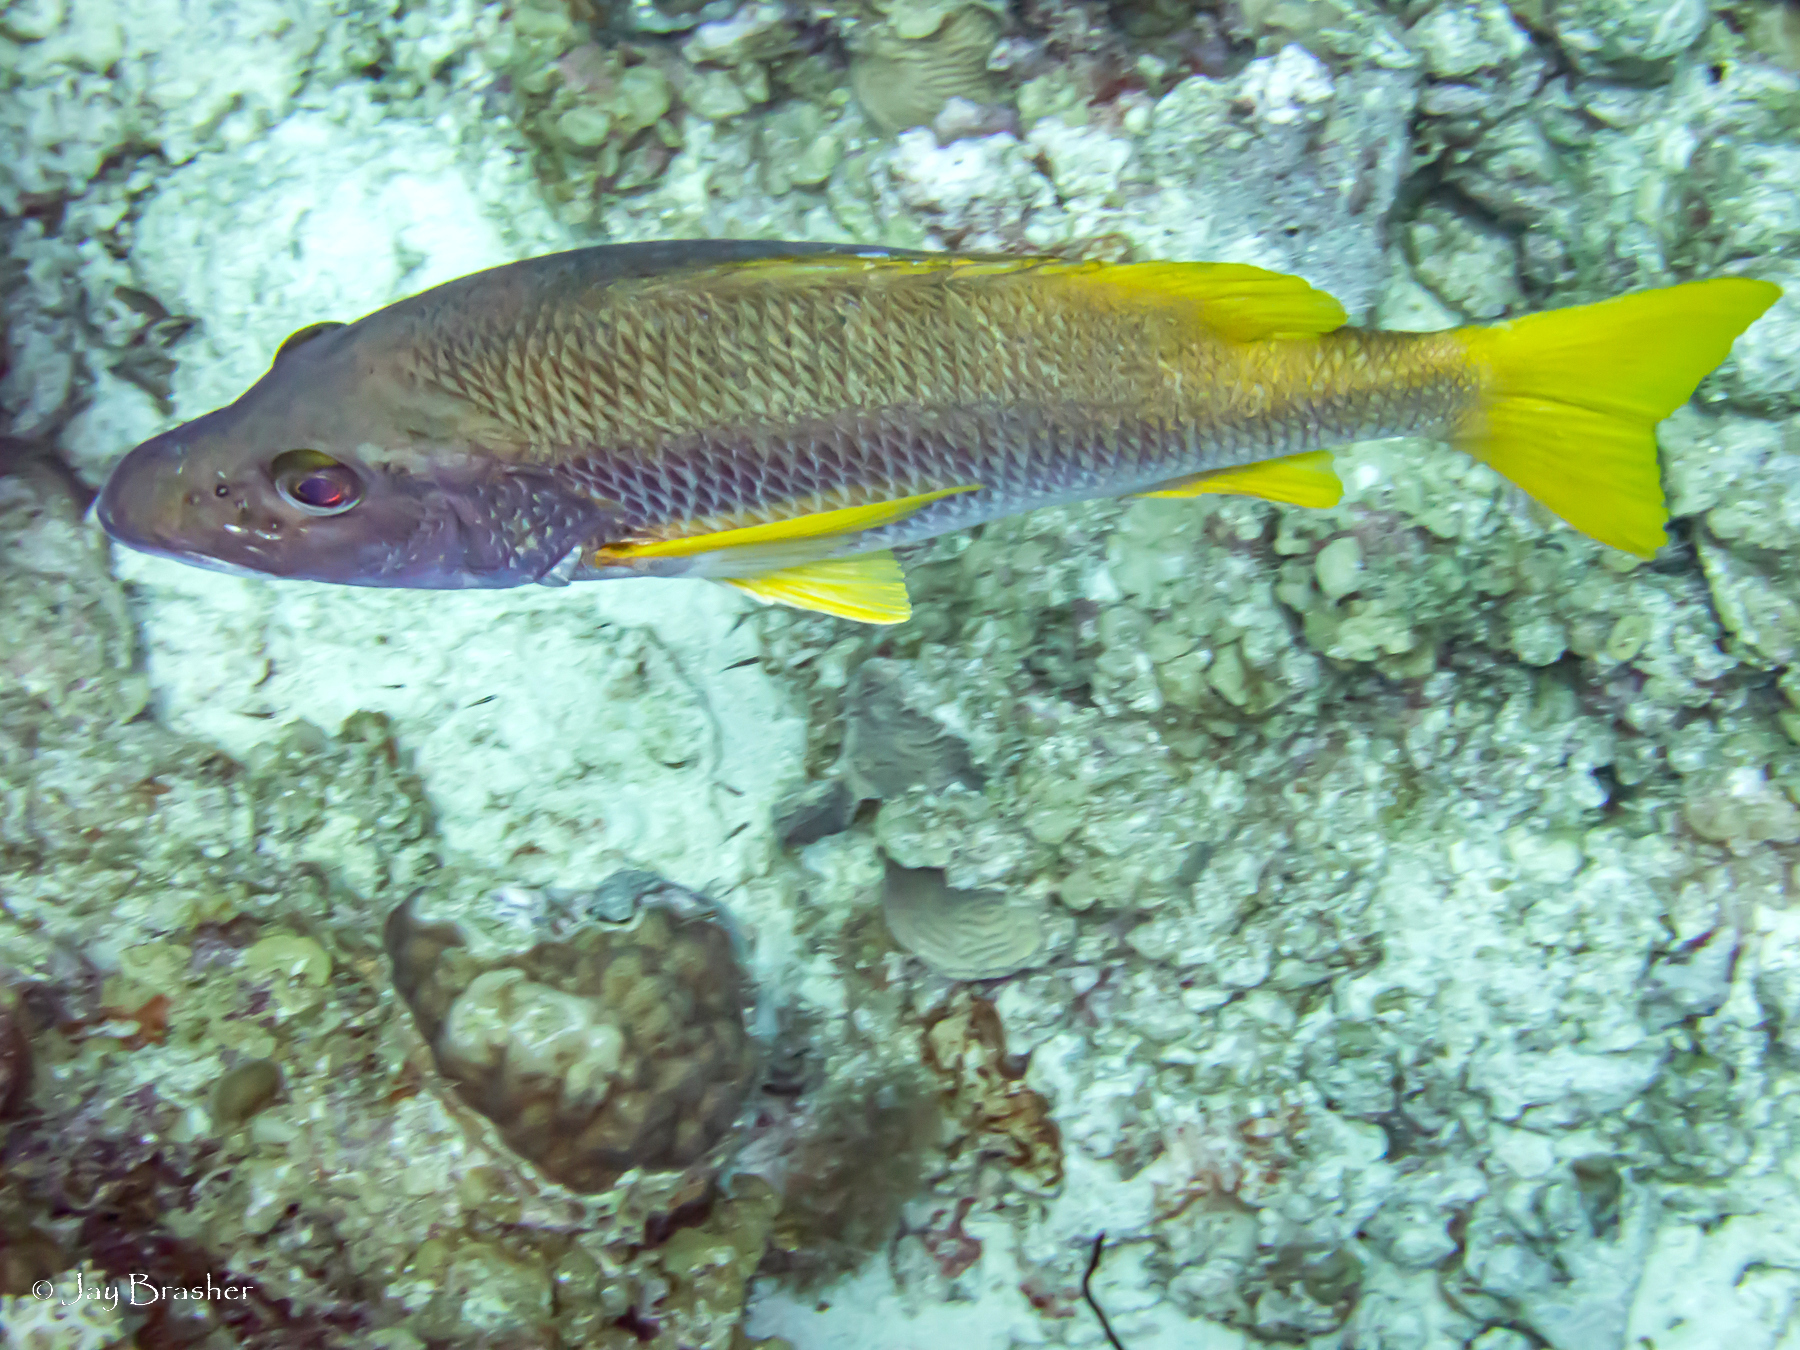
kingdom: Animalia
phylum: Chordata
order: Perciformes
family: Lutjanidae
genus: Lutjanus
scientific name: Lutjanus apodus
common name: Schoolmaster
